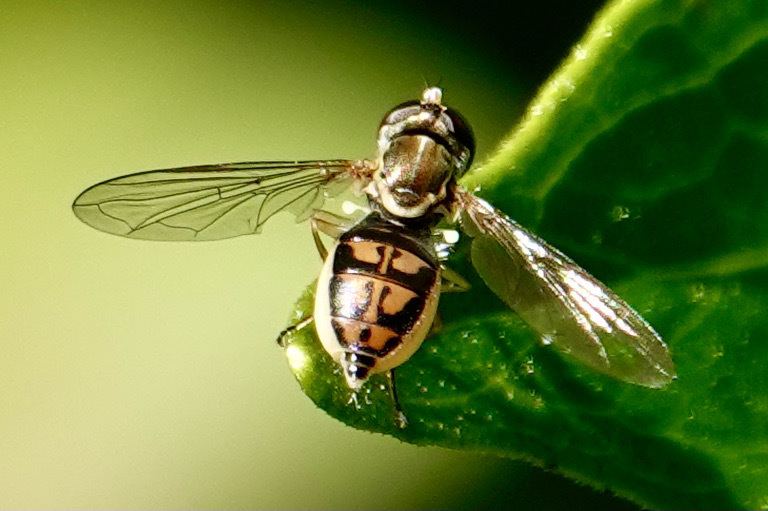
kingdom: Animalia
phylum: Arthropoda
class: Insecta
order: Diptera
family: Syrphidae
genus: Toxomerus
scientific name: Toxomerus marginatus
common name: Syrphid fly
